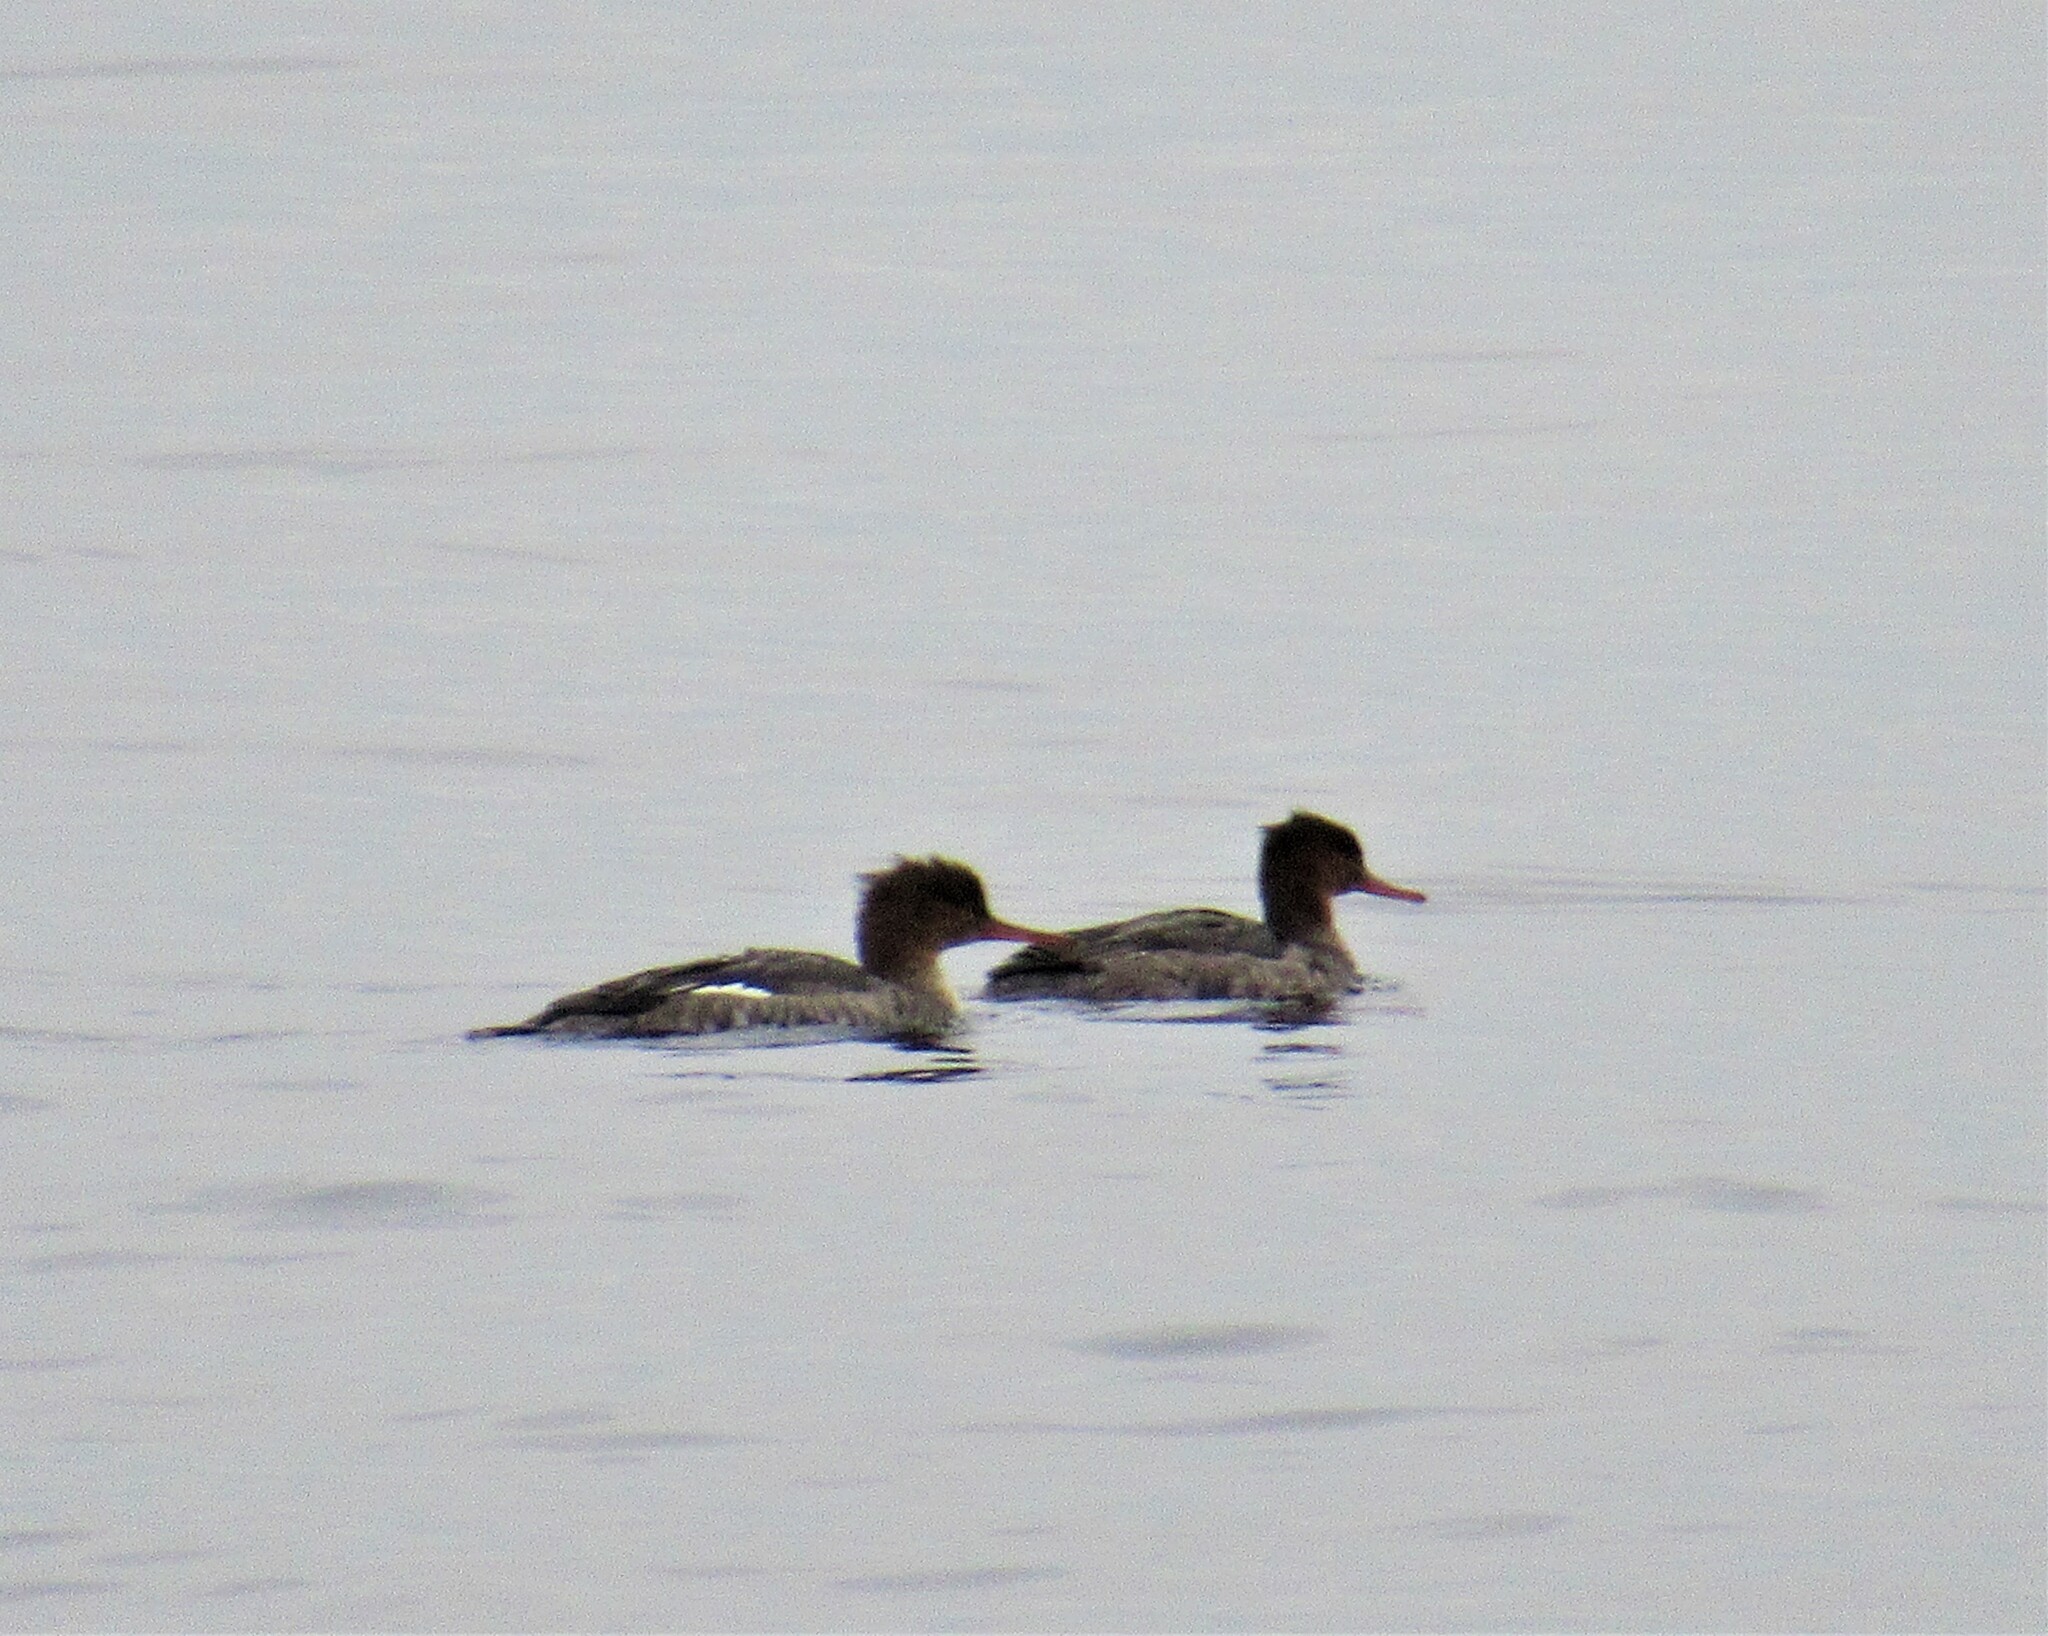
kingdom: Animalia
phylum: Chordata
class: Aves
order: Anseriformes
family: Anatidae
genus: Mergus
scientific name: Mergus serrator
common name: Red-breasted merganser
